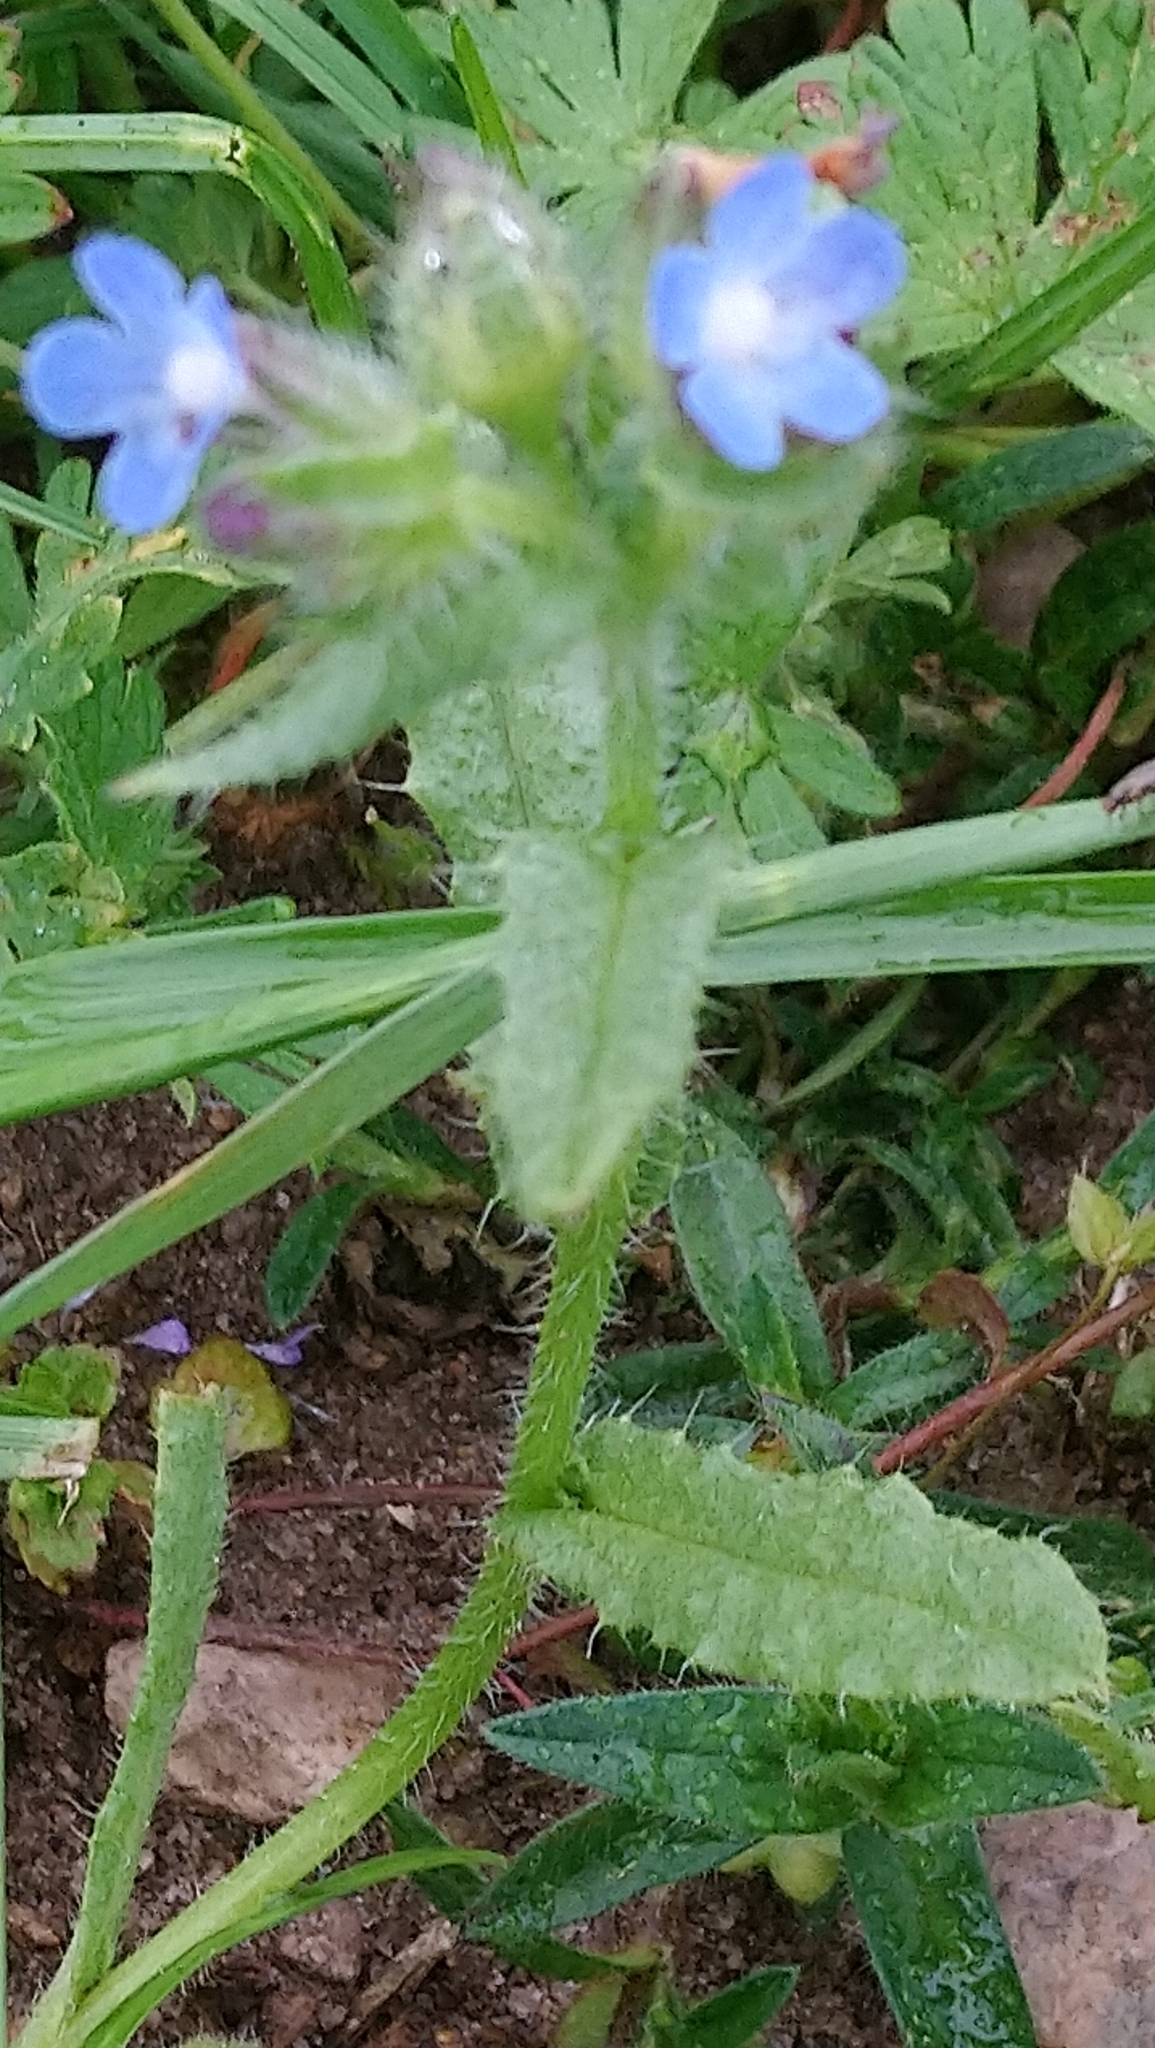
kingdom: Plantae
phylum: Tracheophyta
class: Magnoliopsida
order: Boraginales
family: Boraginaceae
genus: Lycopsis
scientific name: Lycopsis arvensis
